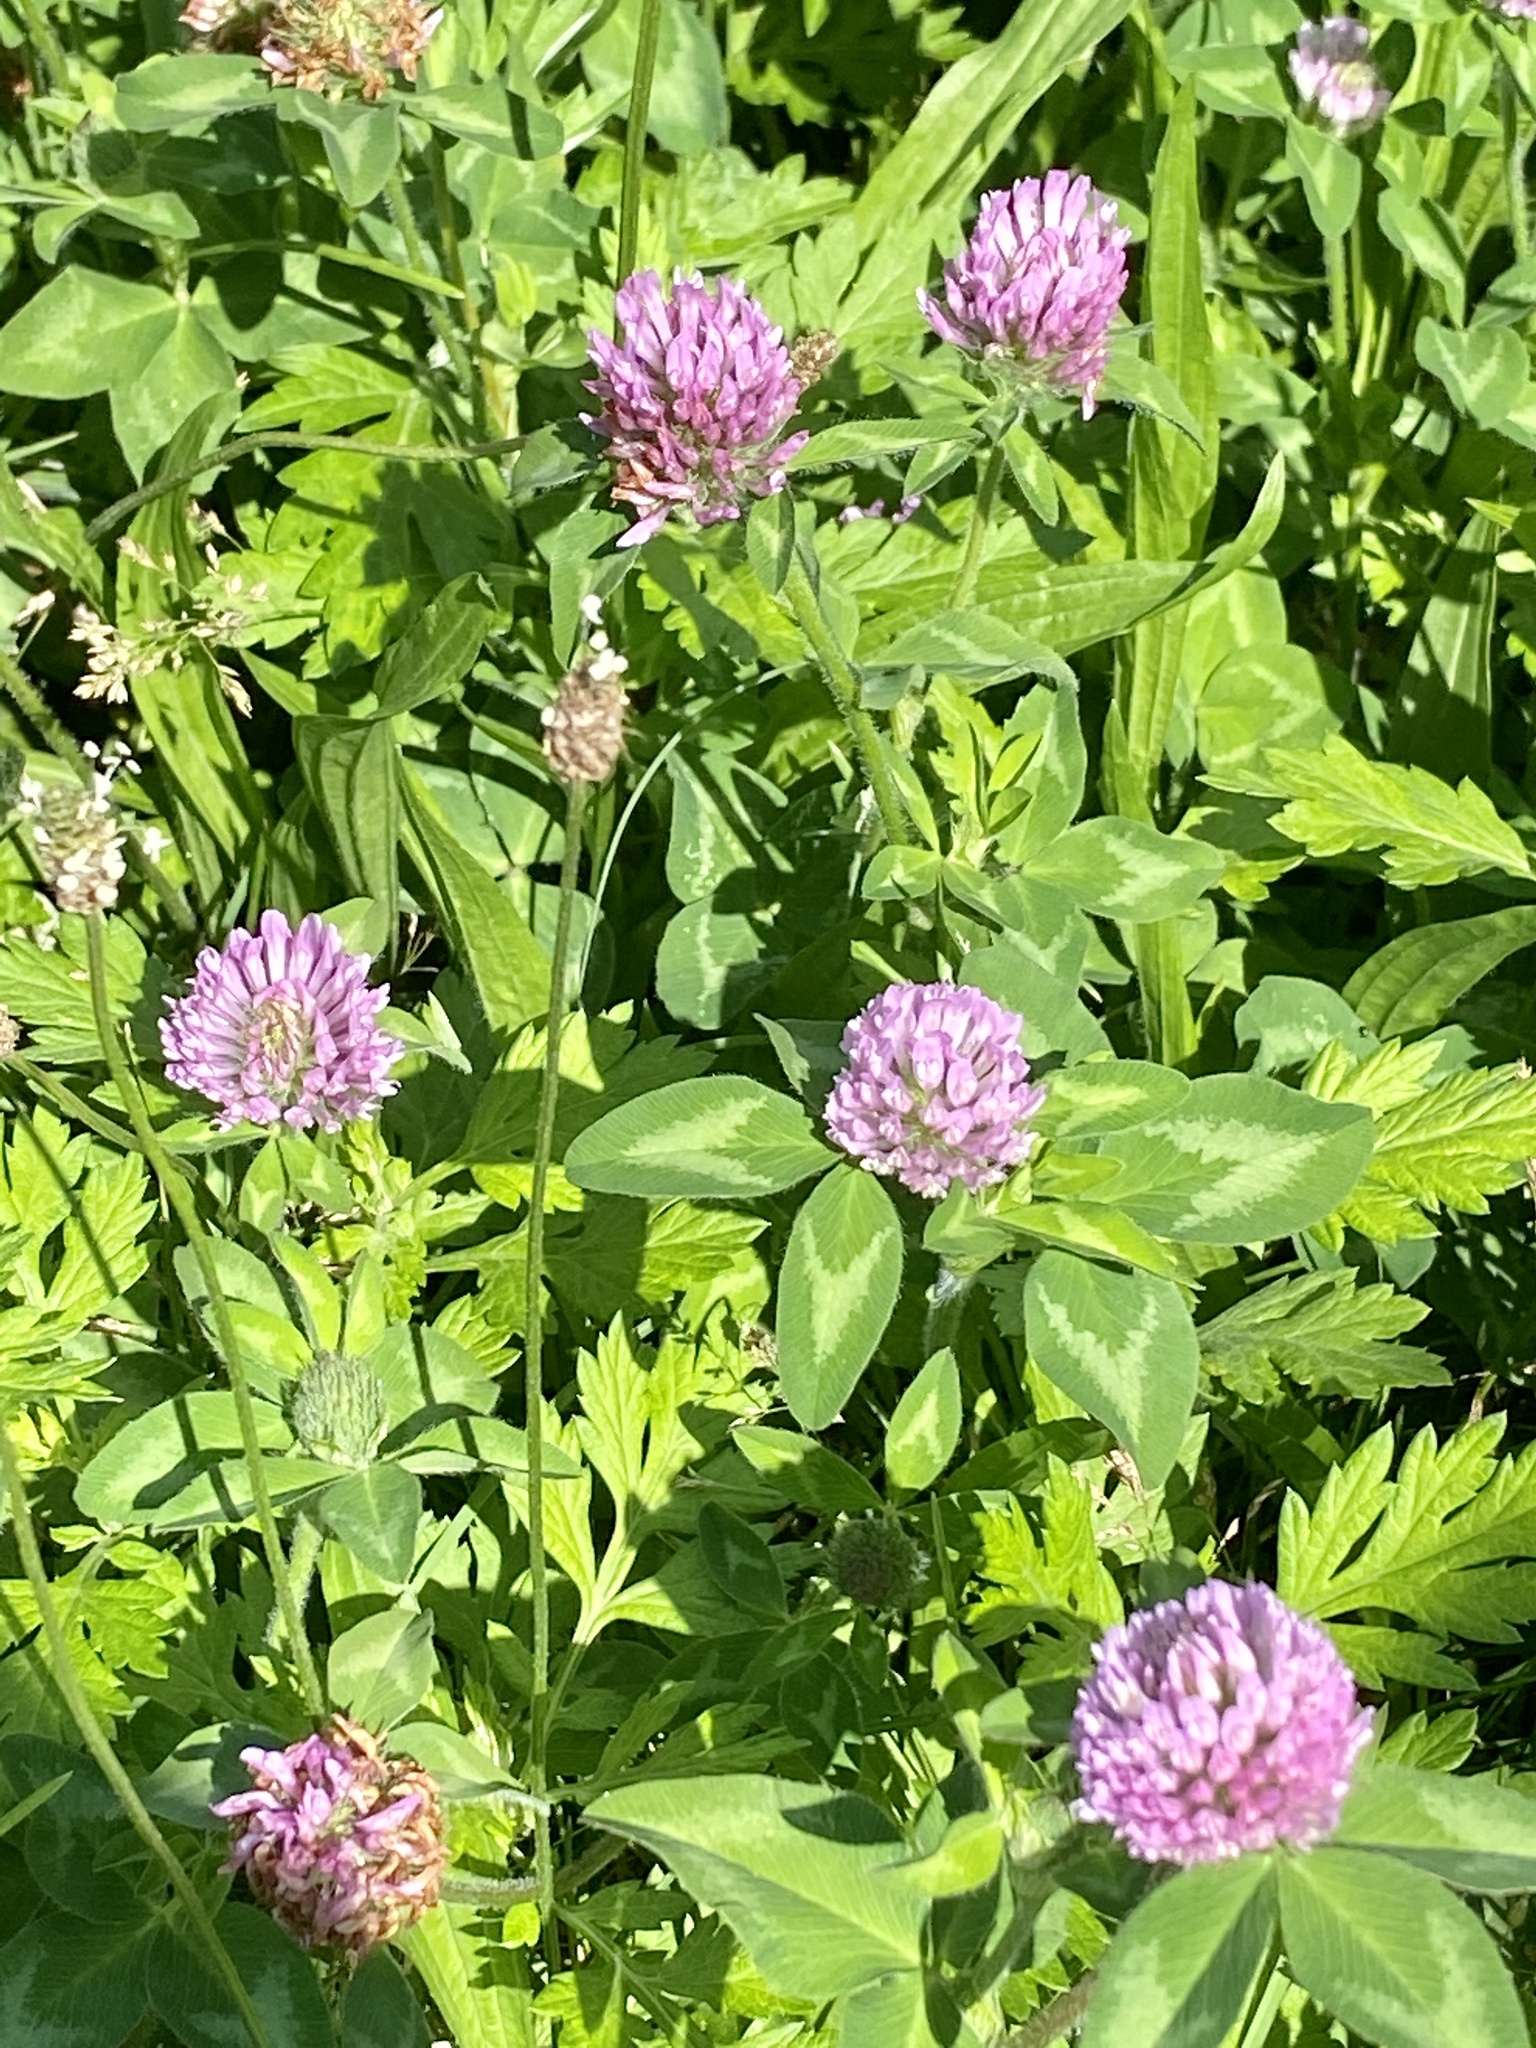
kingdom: Plantae
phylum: Tracheophyta
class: Magnoliopsida
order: Fabales
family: Fabaceae
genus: Trifolium
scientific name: Trifolium pratense
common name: Red clover
